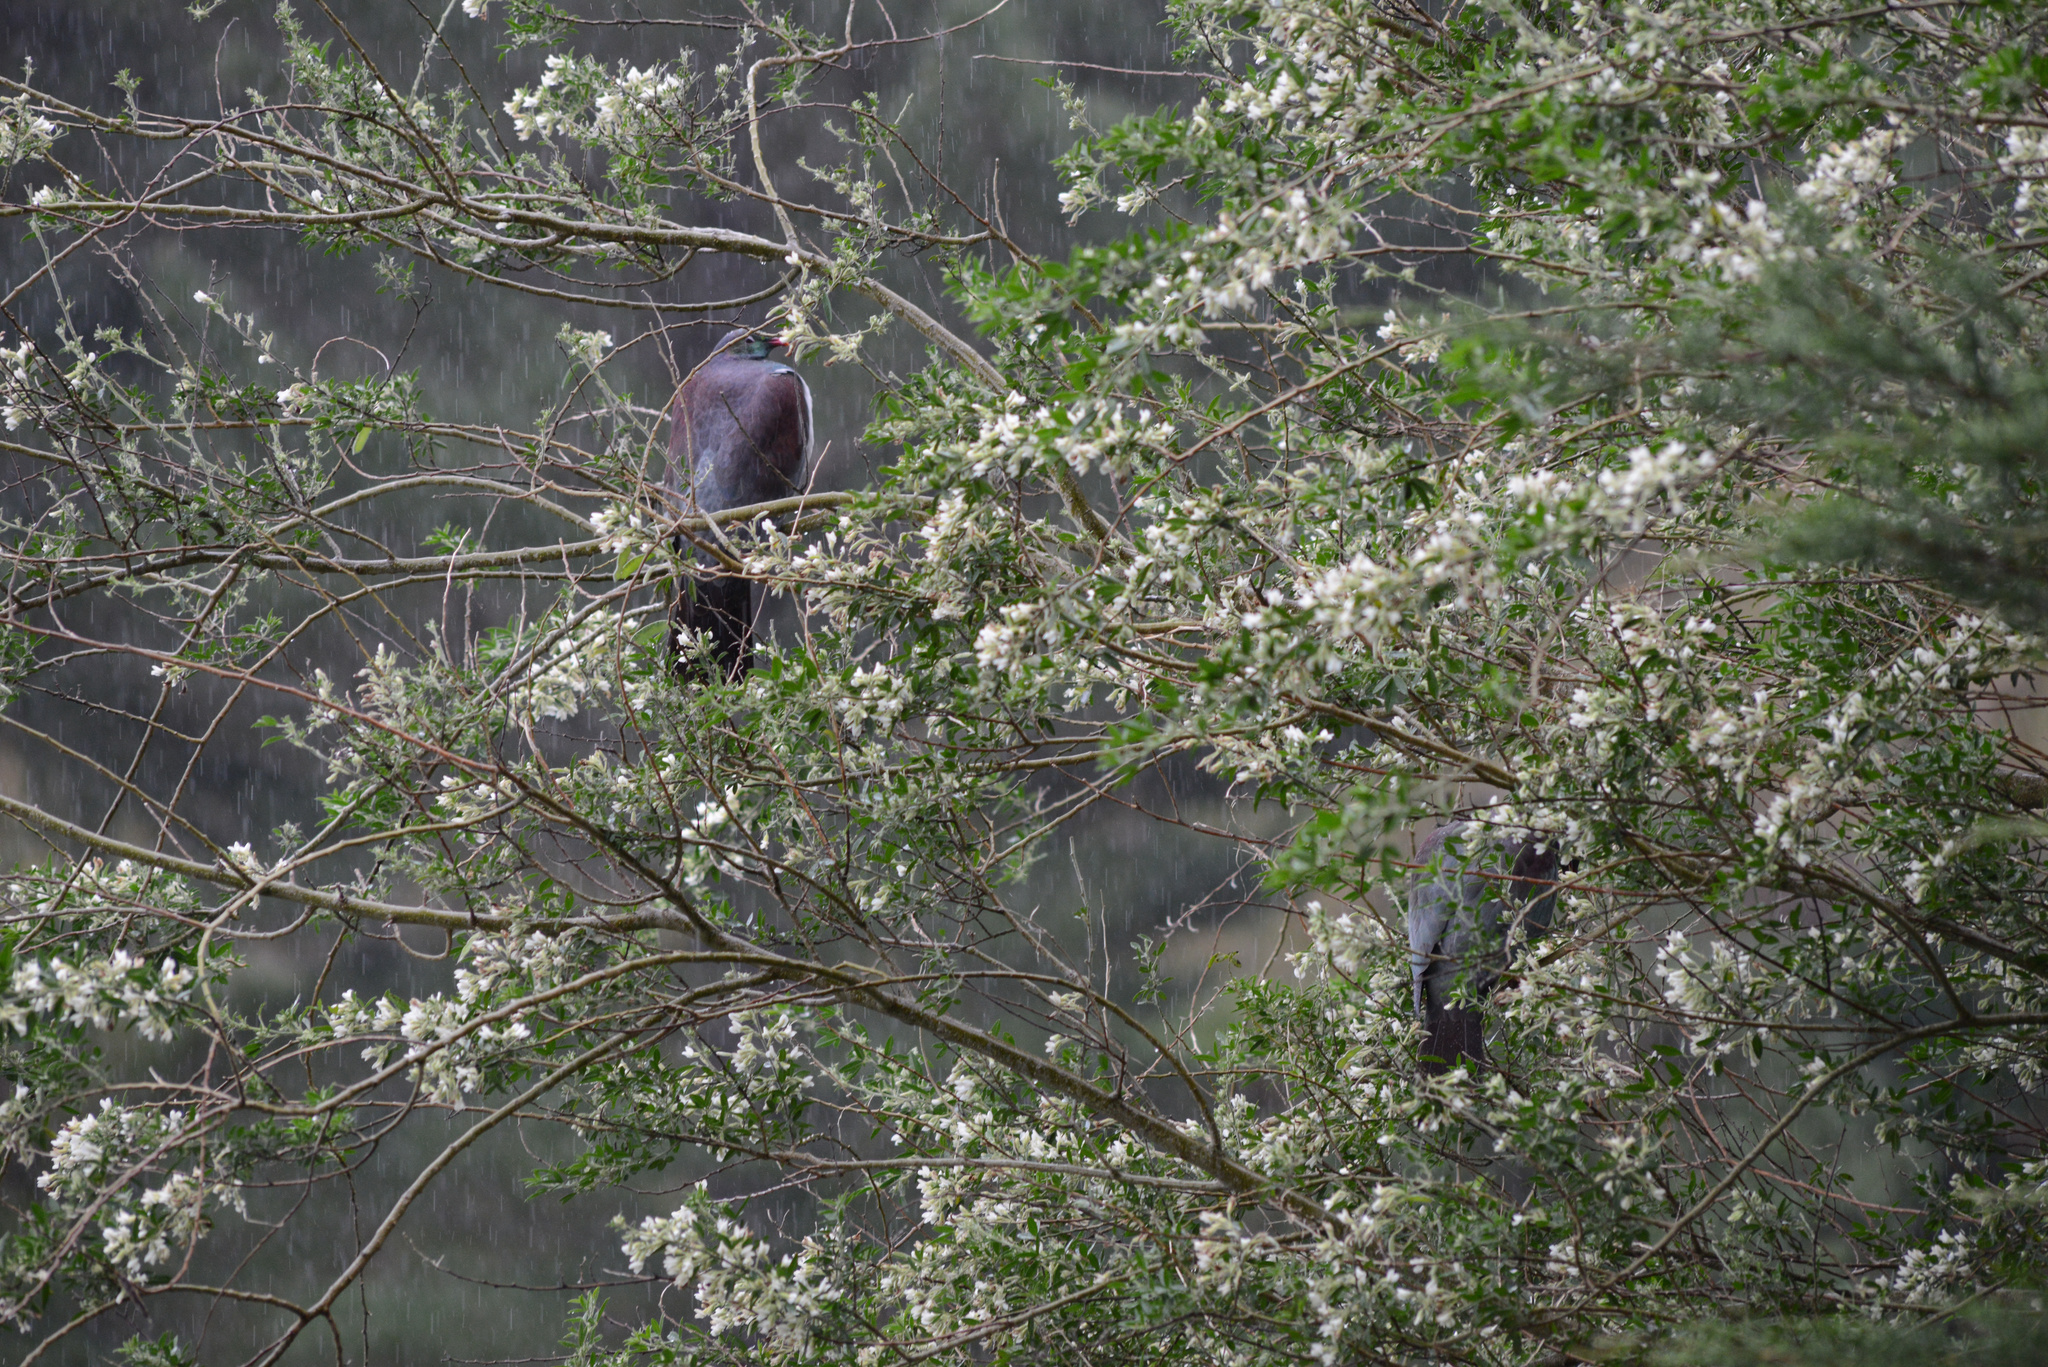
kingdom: Animalia
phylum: Chordata
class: Aves
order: Columbiformes
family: Columbidae
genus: Hemiphaga
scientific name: Hemiphaga novaeseelandiae
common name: New zealand pigeon
